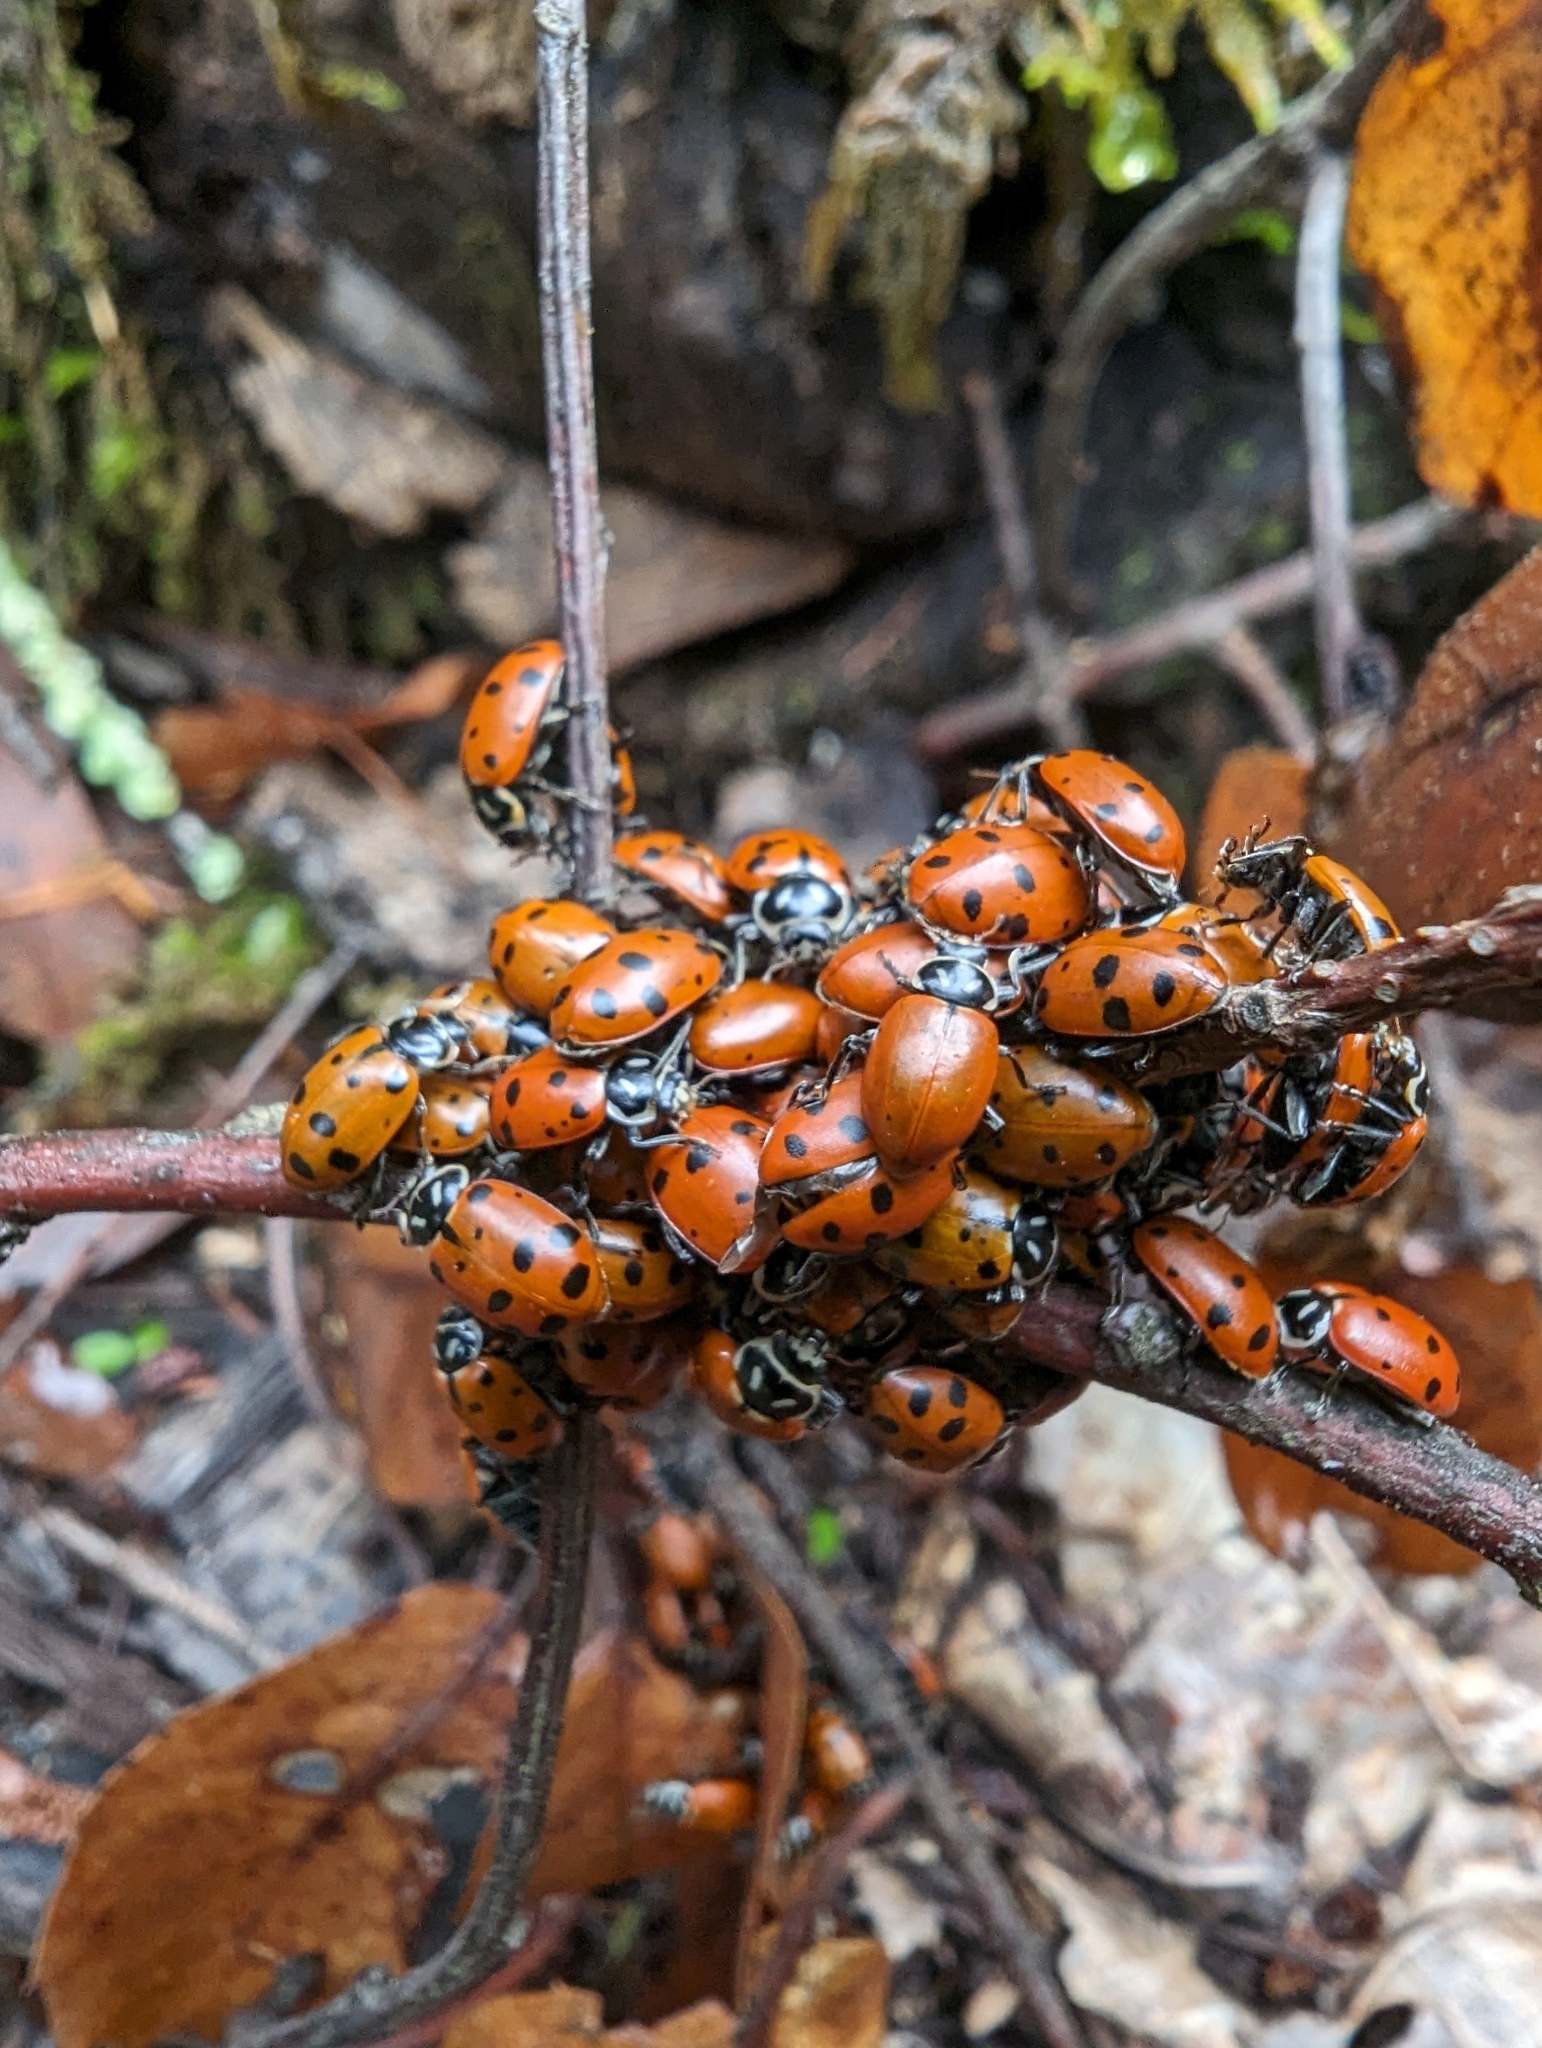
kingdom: Animalia
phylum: Arthropoda
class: Insecta
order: Coleoptera
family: Coccinellidae
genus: Hippodamia
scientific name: Hippodamia convergens
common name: Convergent lady beetle
